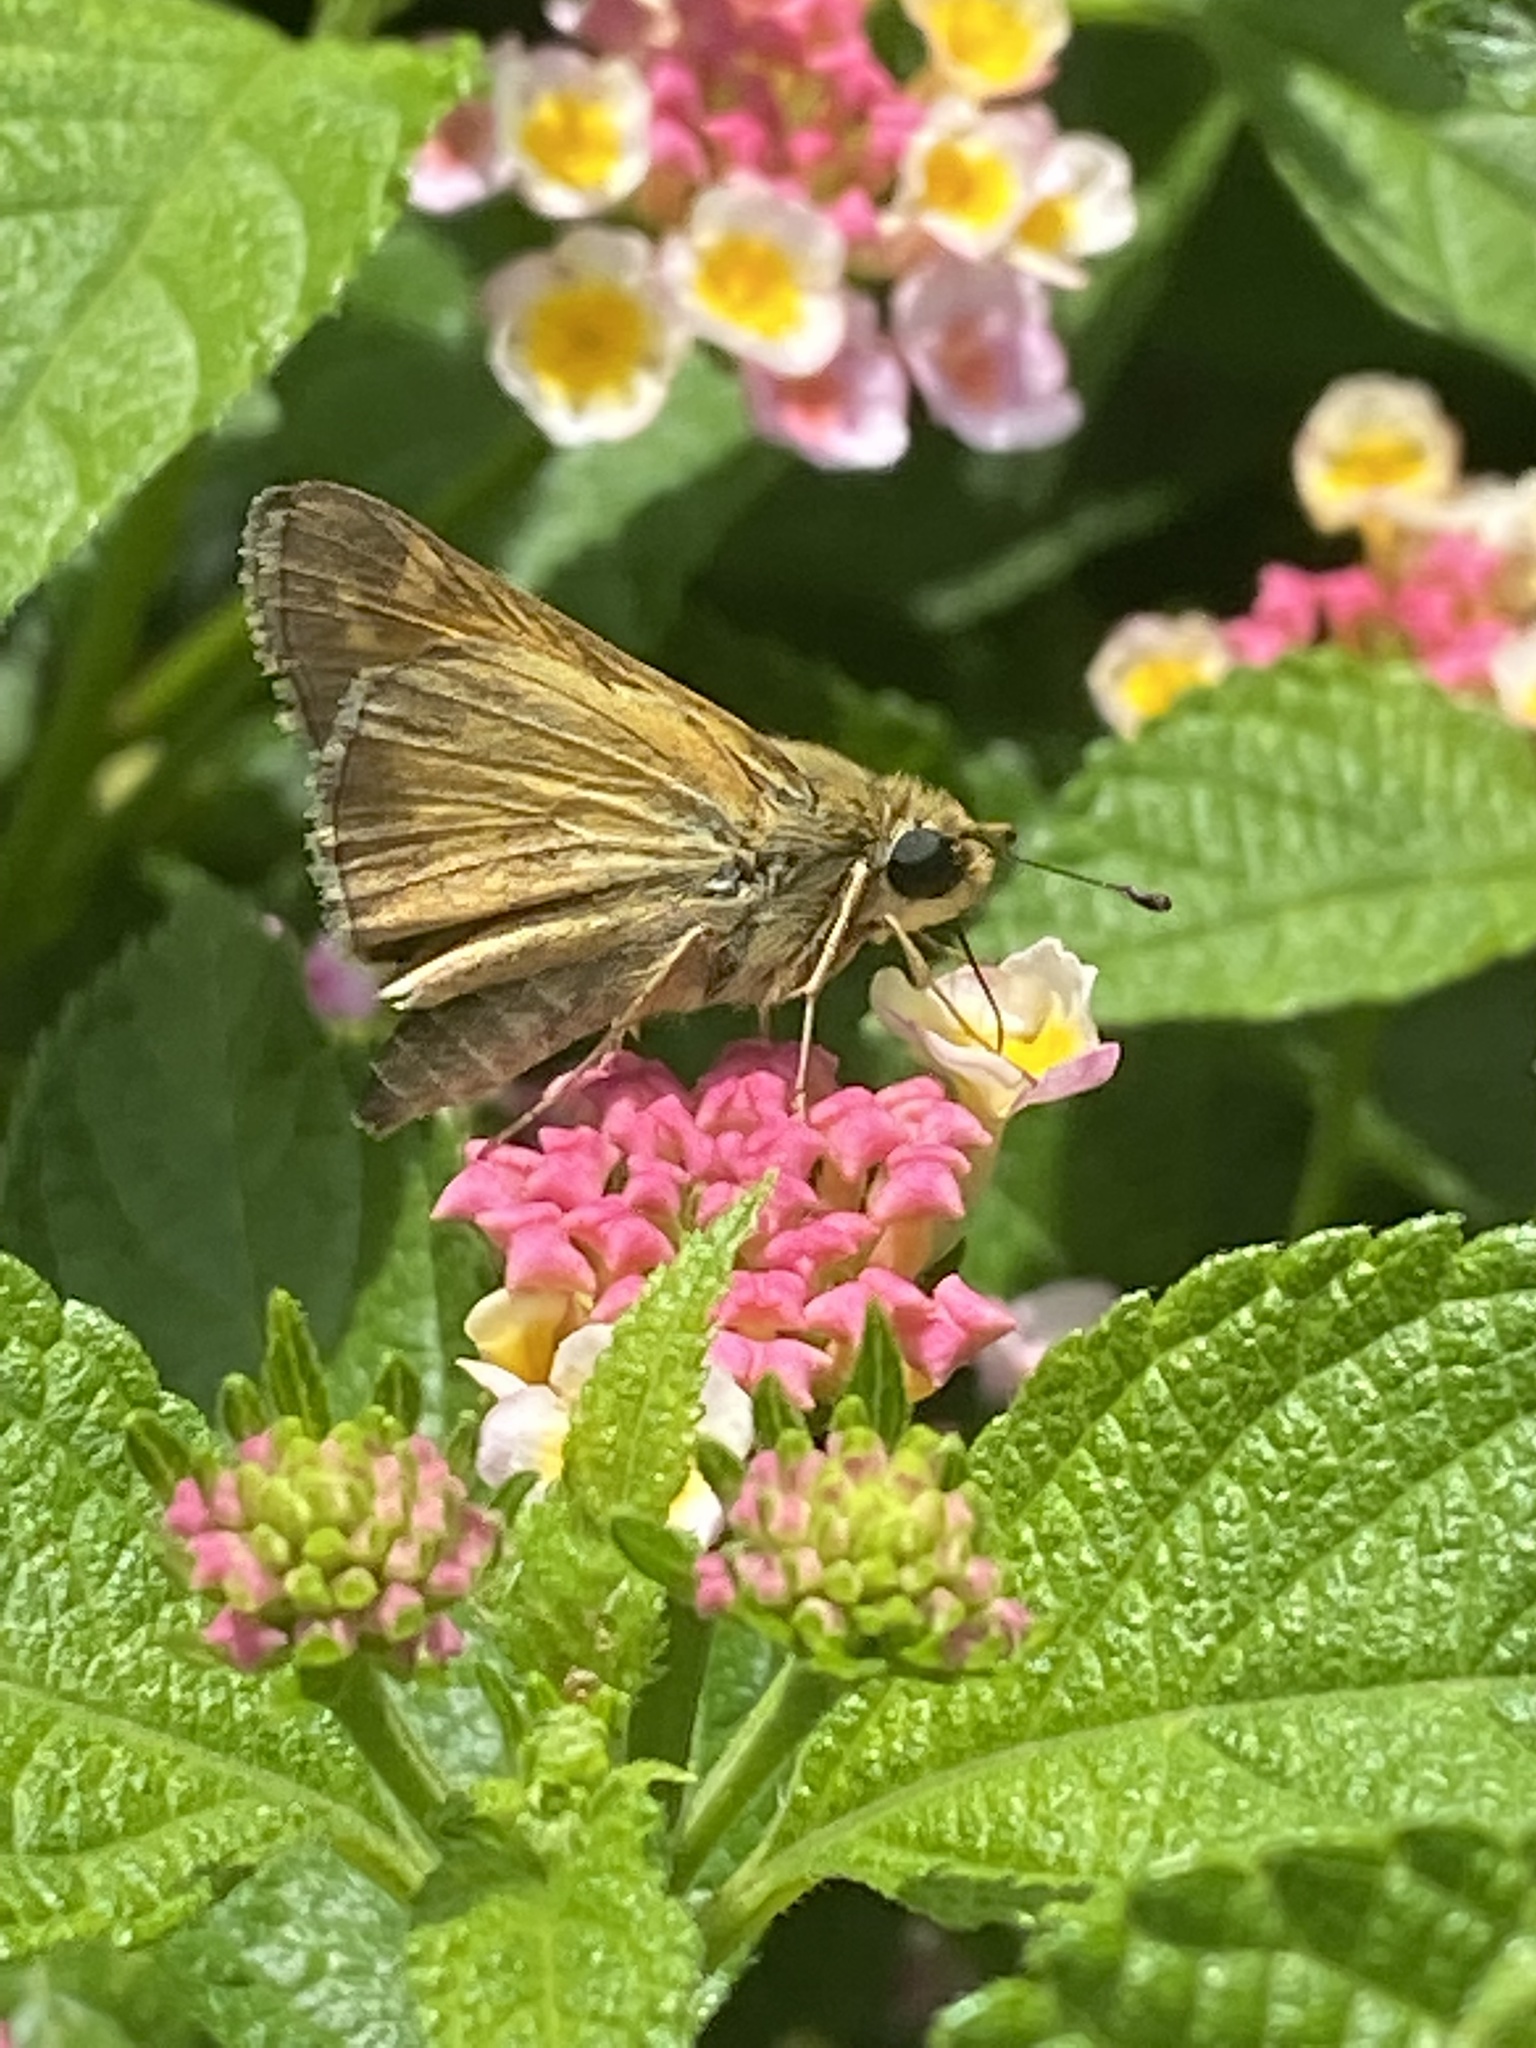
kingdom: Animalia
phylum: Arthropoda
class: Insecta
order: Lepidoptera
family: Hesperiidae
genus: Atalopedes
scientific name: Atalopedes
